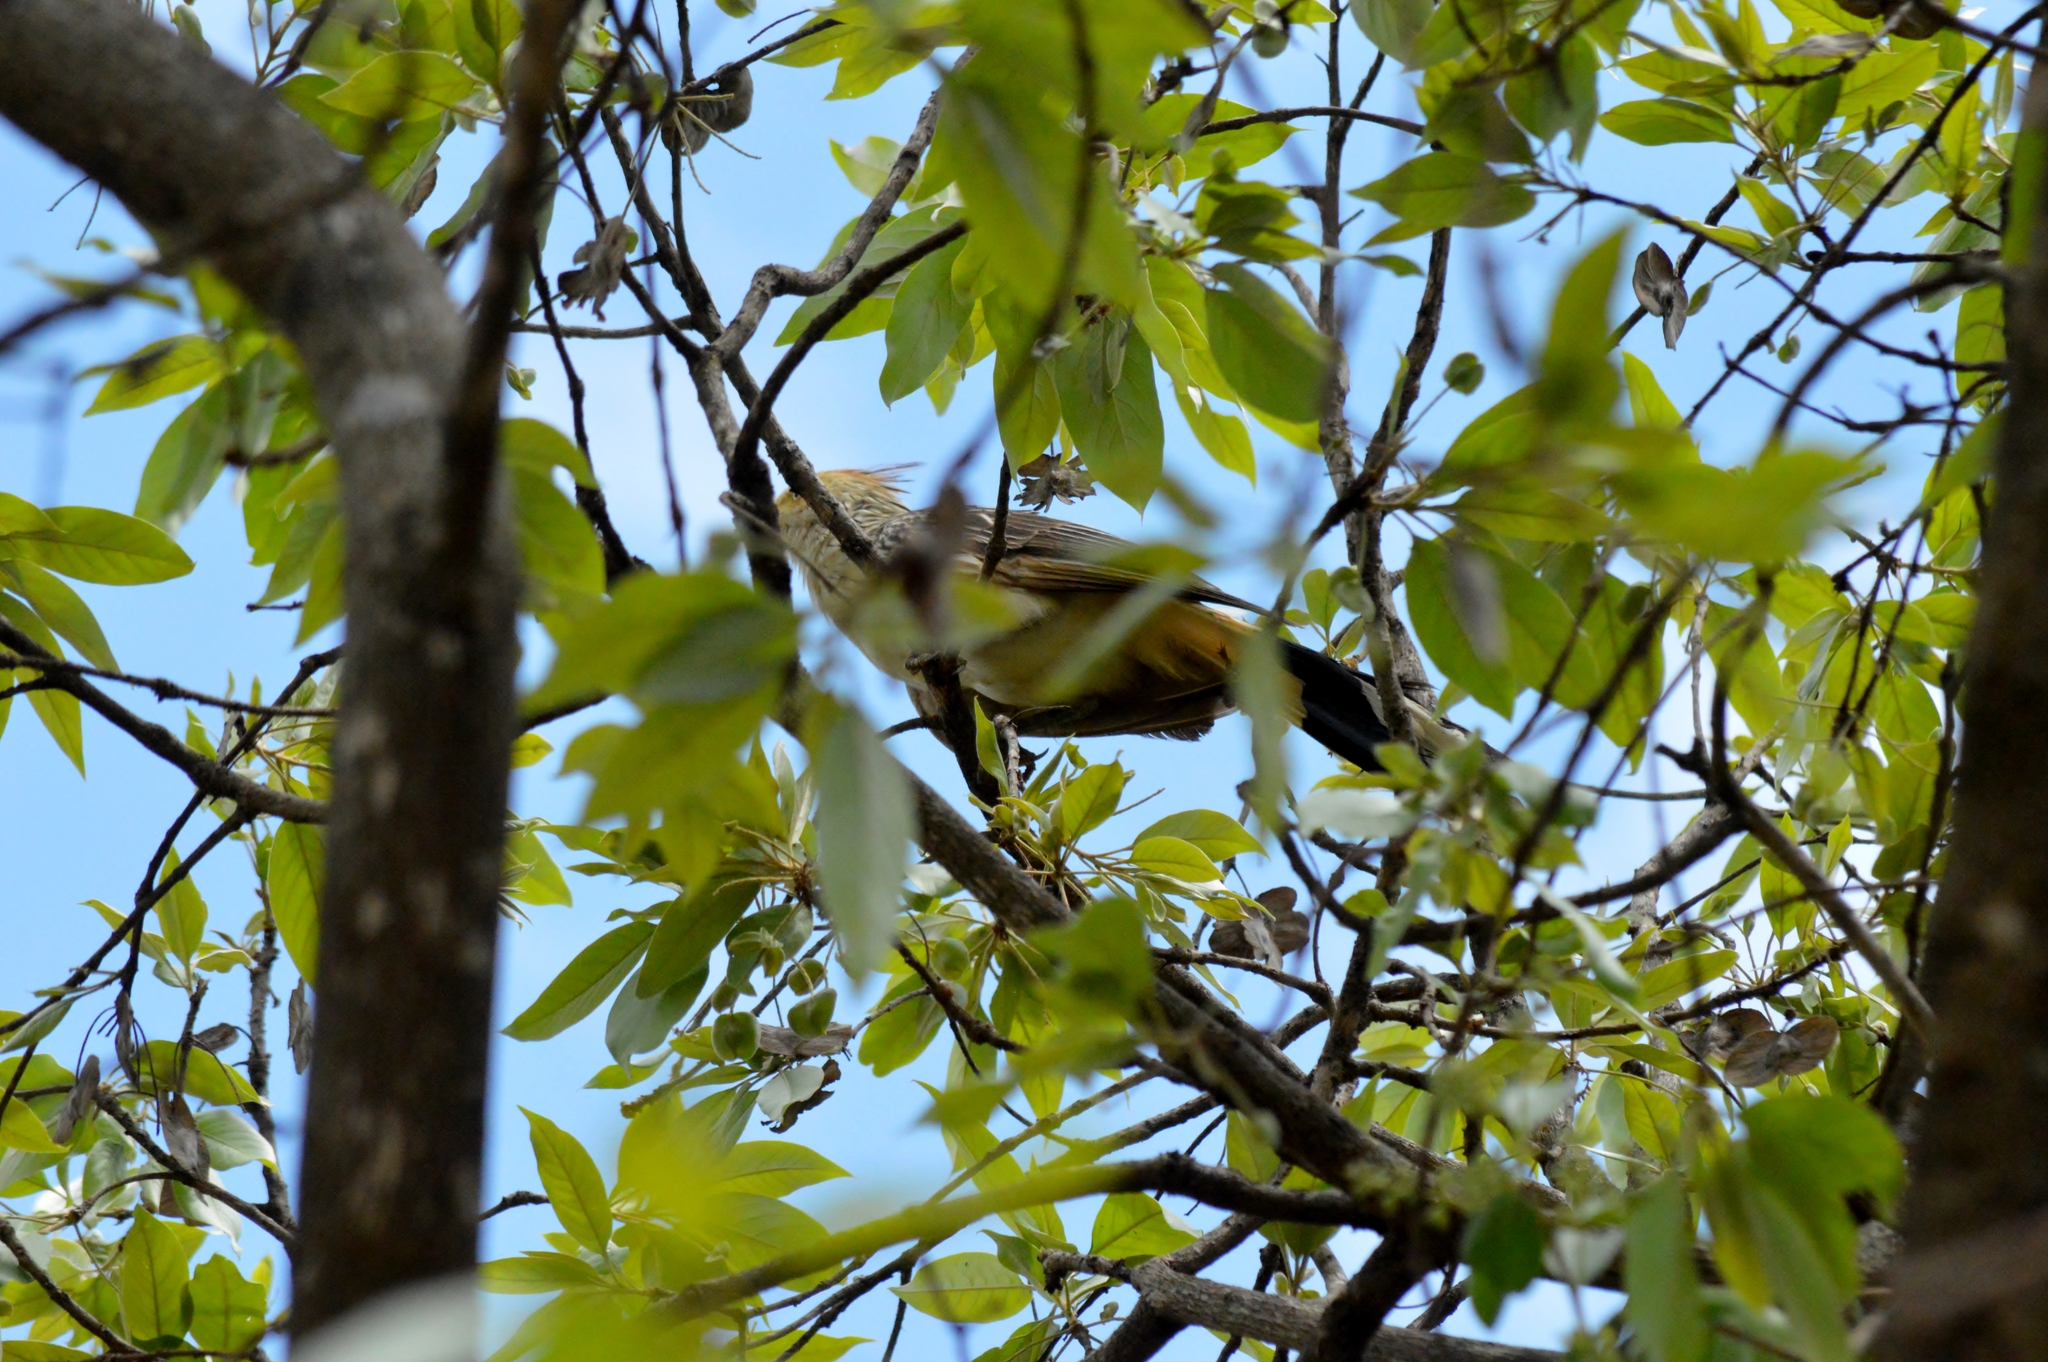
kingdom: Animalia
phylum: Chordata
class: Aves
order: Cuculiformes
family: Cuculidae
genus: Guira
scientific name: Guira guira
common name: Guira cuckoo
